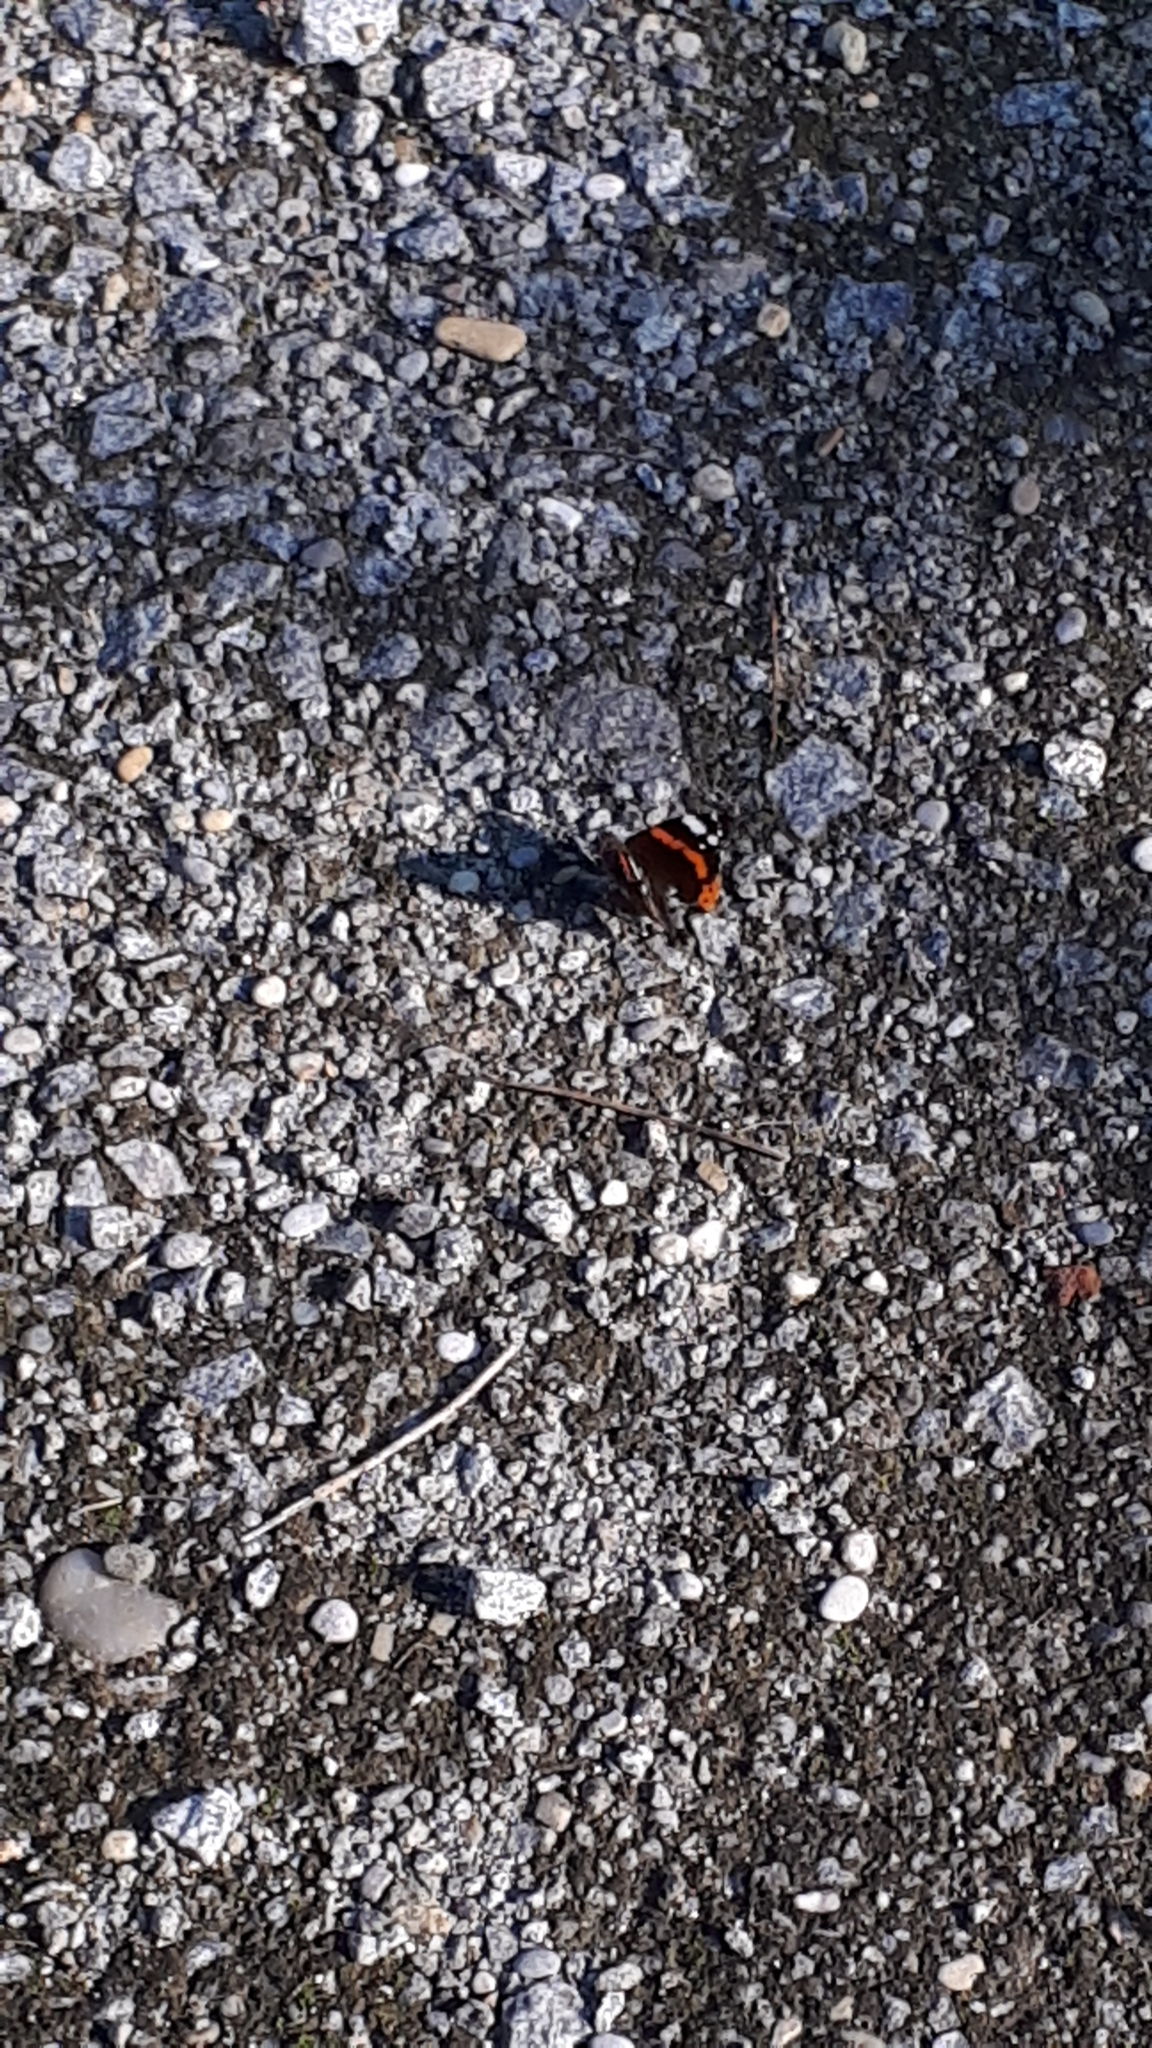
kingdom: Animalia
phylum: Arthropoda
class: Insecta
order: Lepidoptera
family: Nymphalidae
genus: Vanessa
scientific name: Vanessa atalanta
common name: Red admiral
